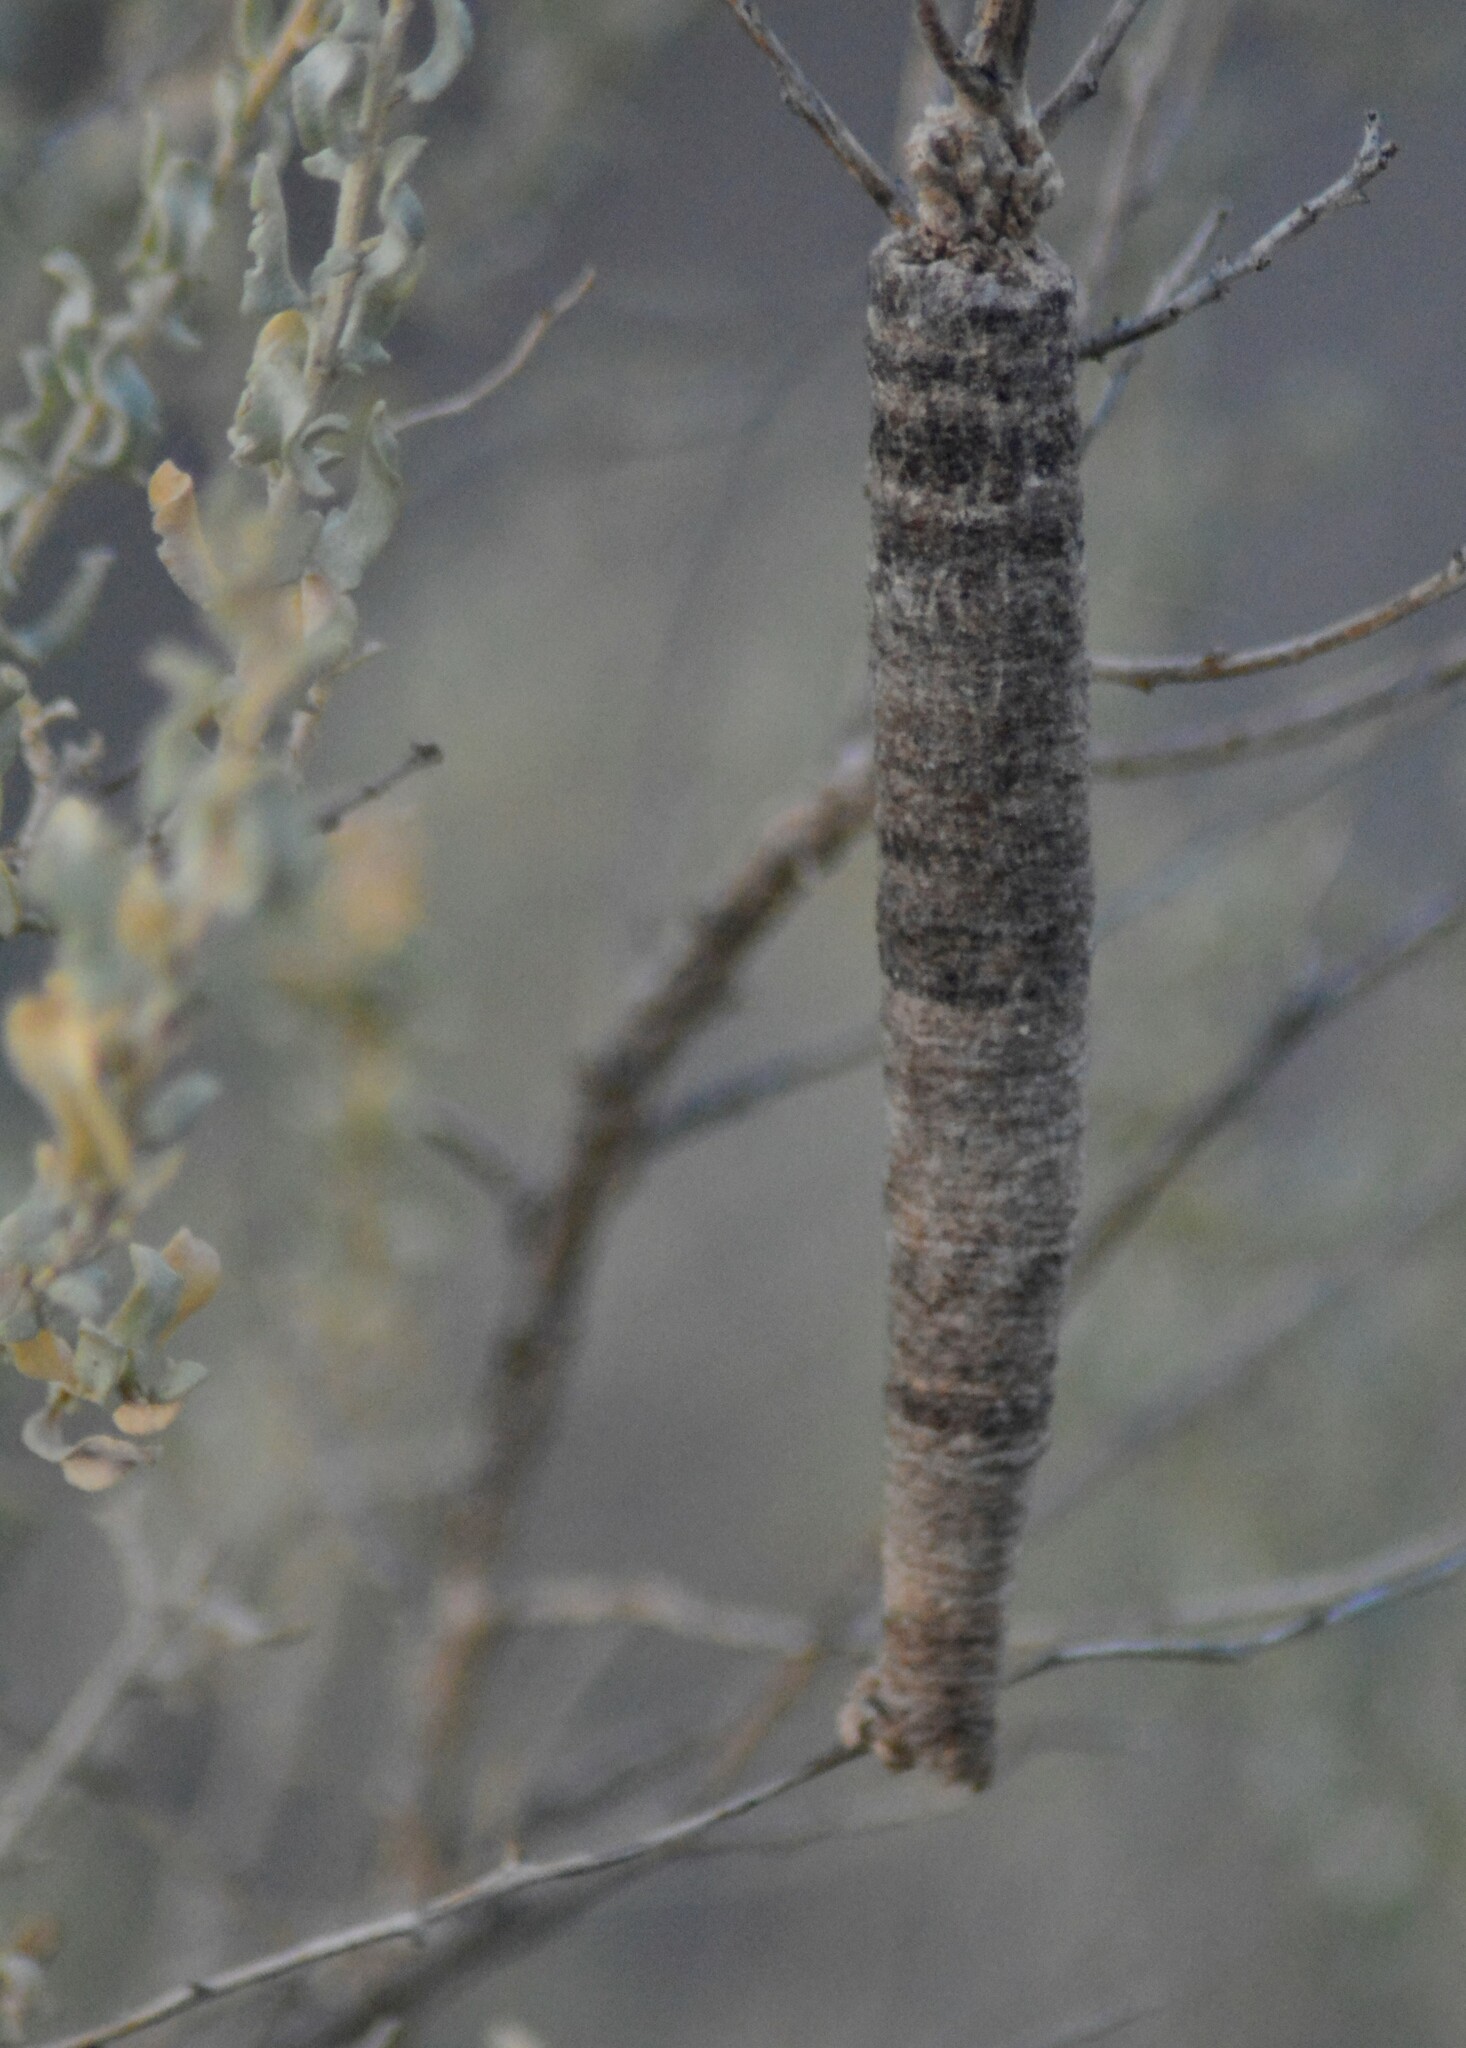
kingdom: Animalia
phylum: Arthropoda
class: Insecta
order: Lepidoptera
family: Psychidae
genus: Oiketicus
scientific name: Oiketicus geyeri
